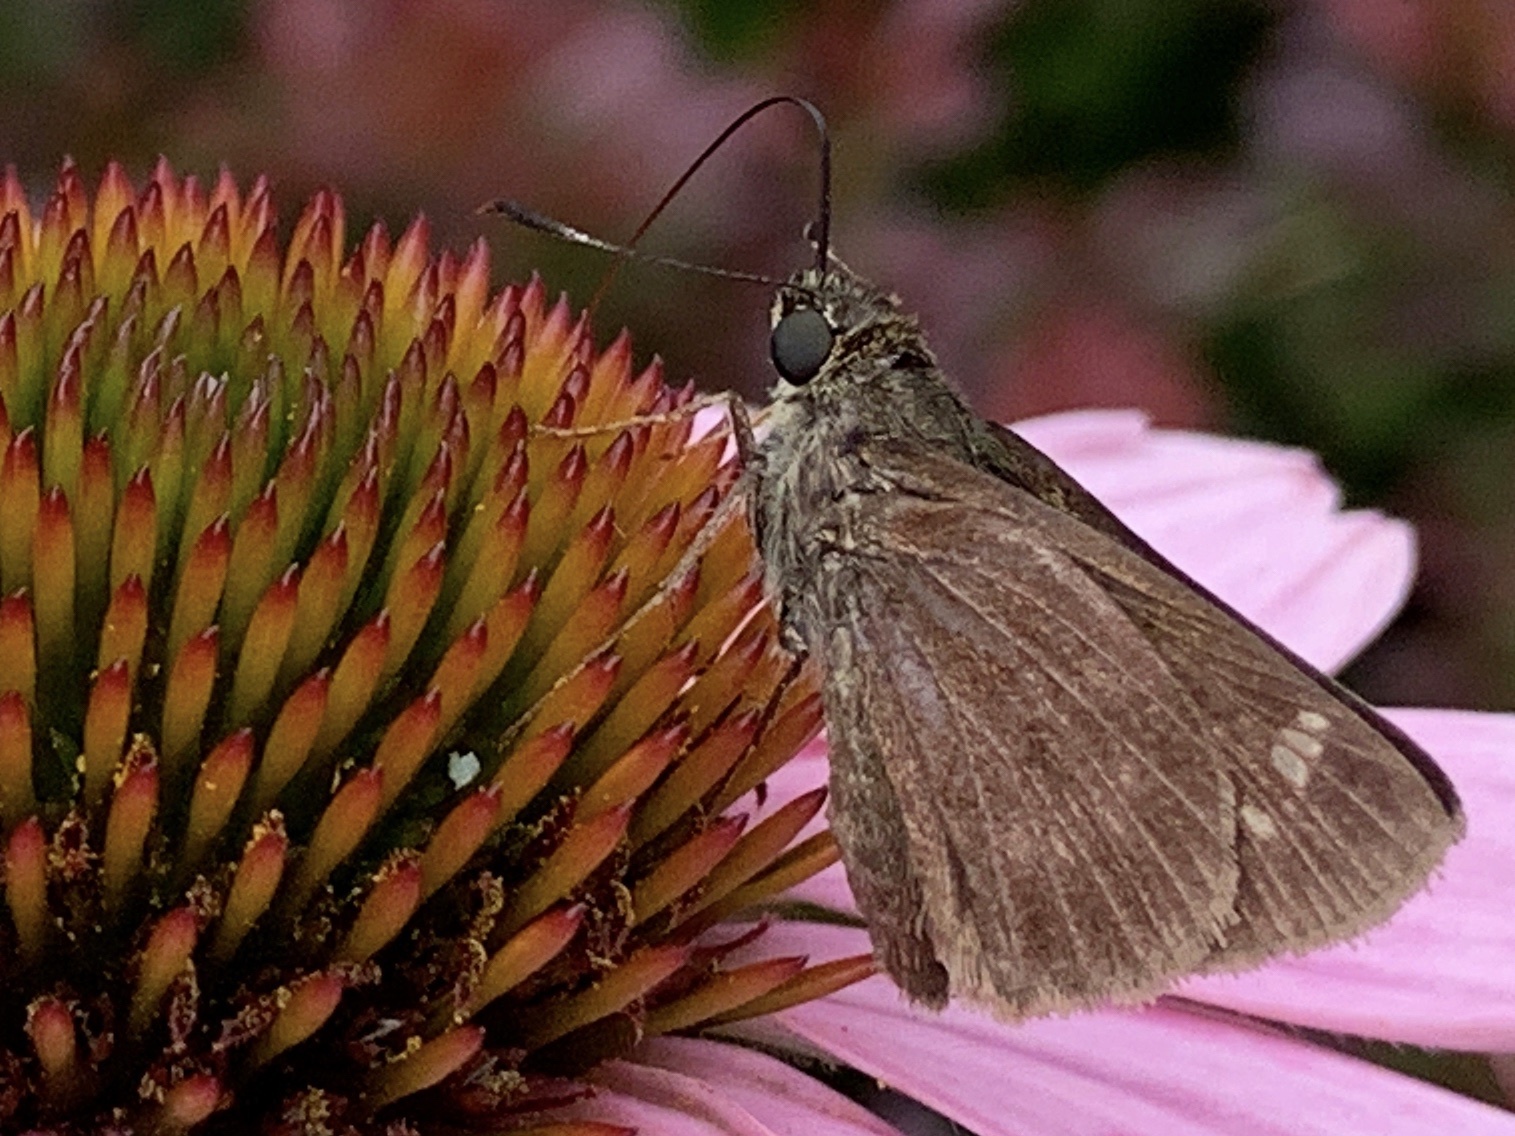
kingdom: Animalia
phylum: Arthropoda
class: Insecta
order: Lepidoptera
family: Hesperiidae
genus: Vernia
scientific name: Vernia verna
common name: Little glassywing
